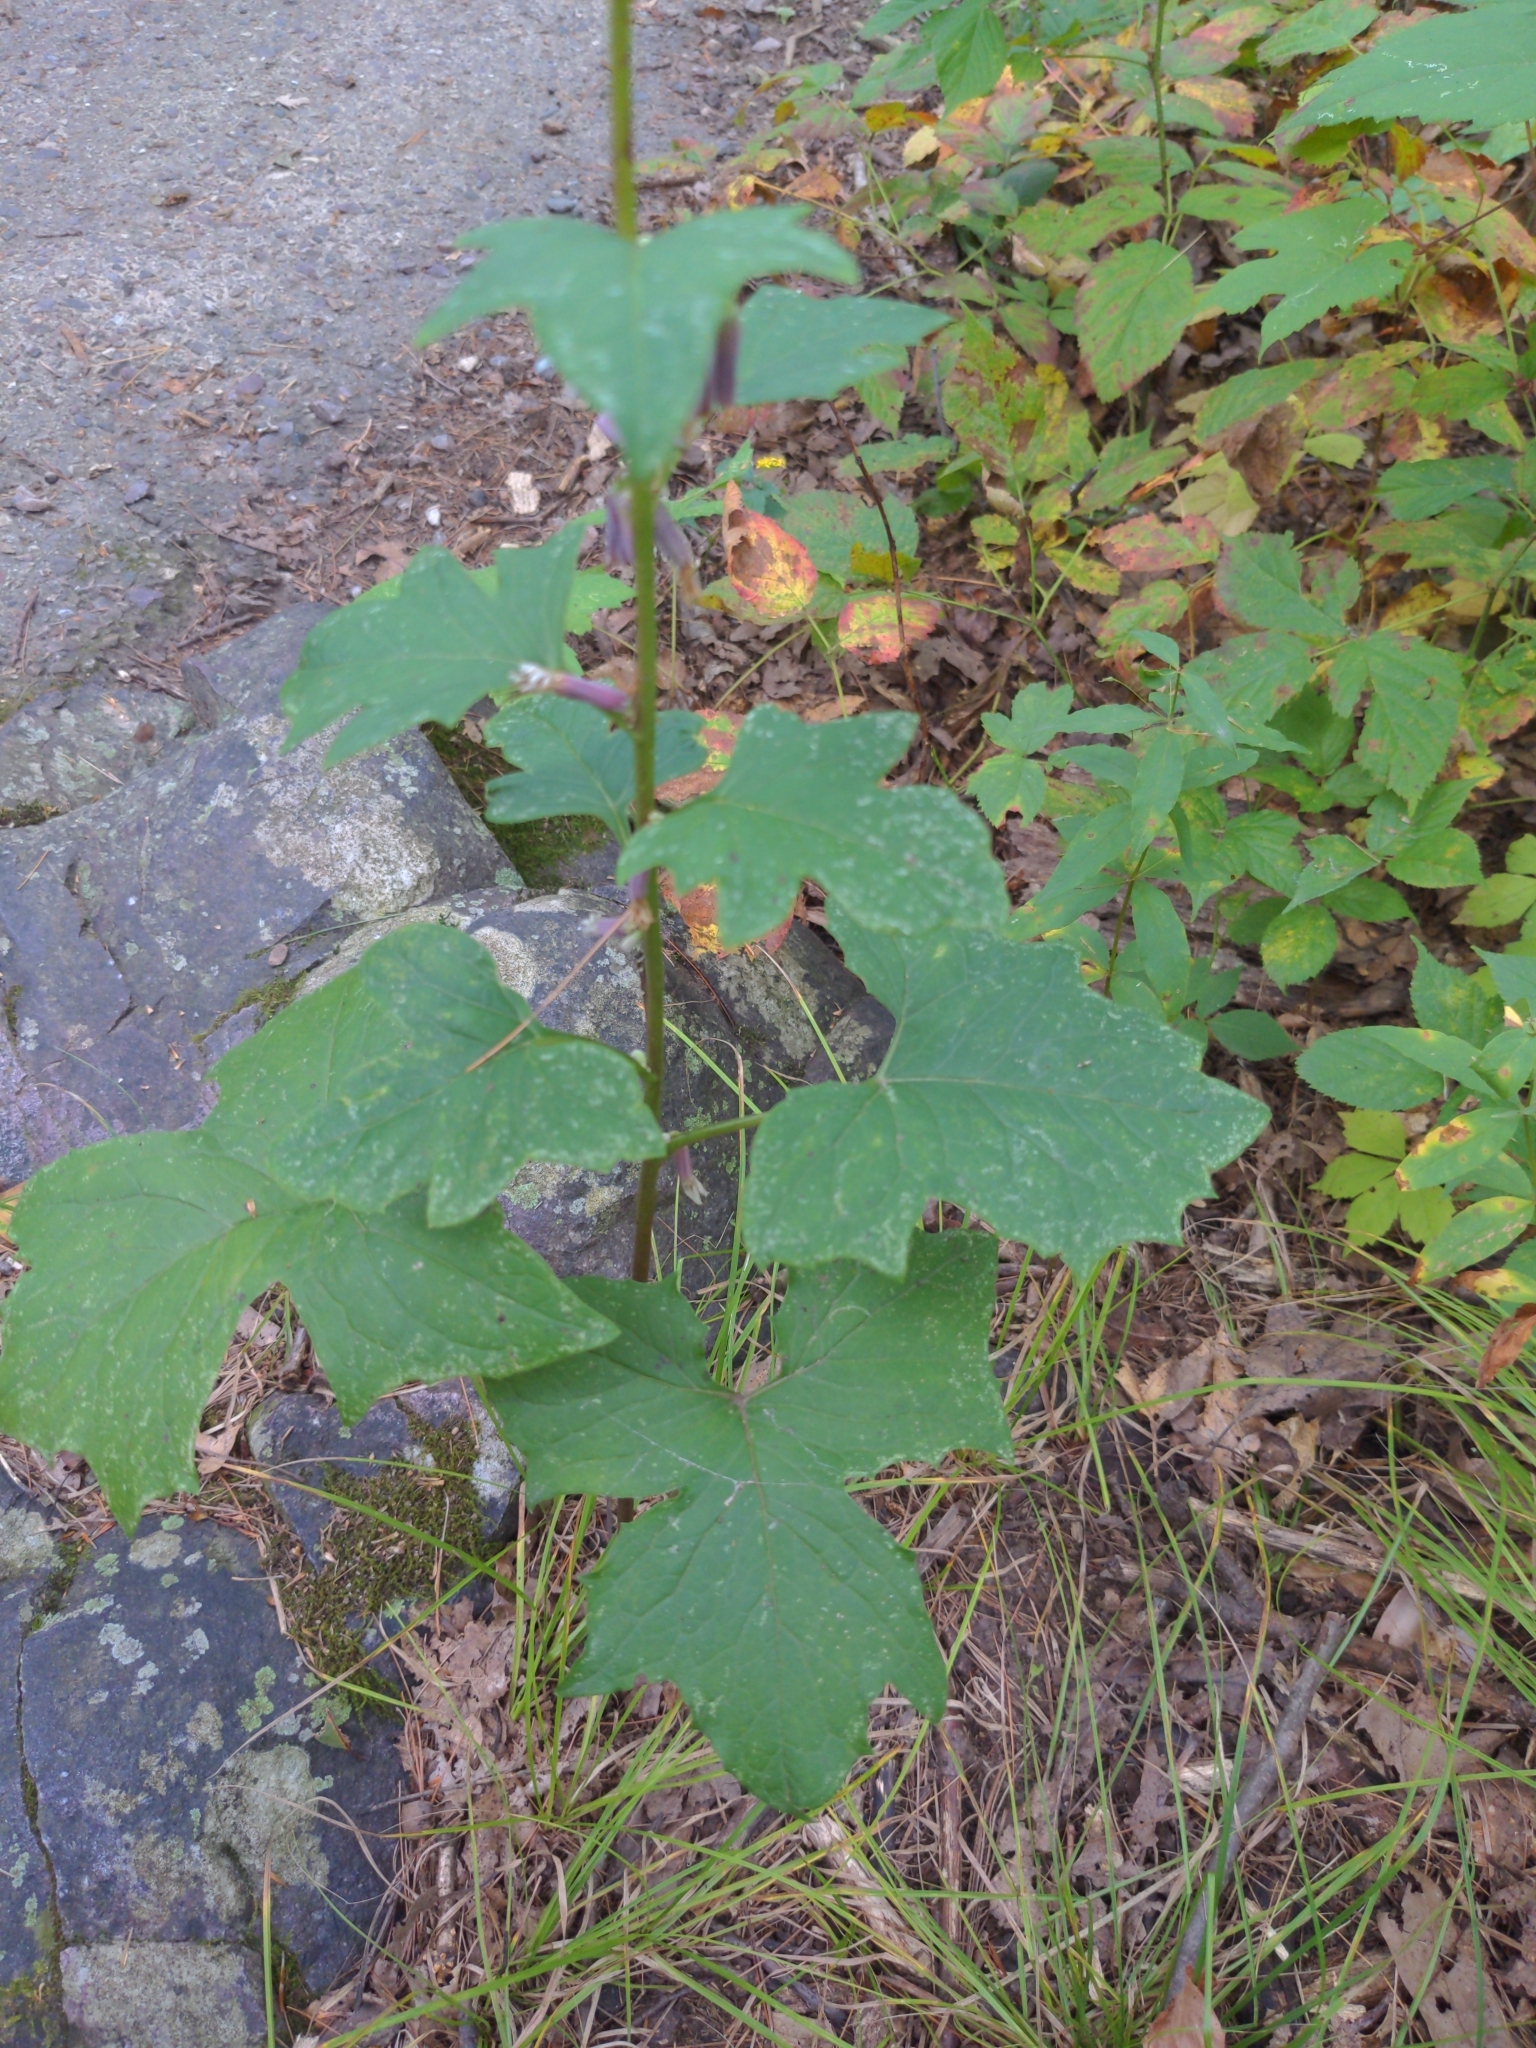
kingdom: Plantae
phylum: Tracheophyta
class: Magnoliopsida
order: Asterales
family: Asteraceae
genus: Nabalus
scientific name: Nabalus albus
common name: White rattlesnakeroot
